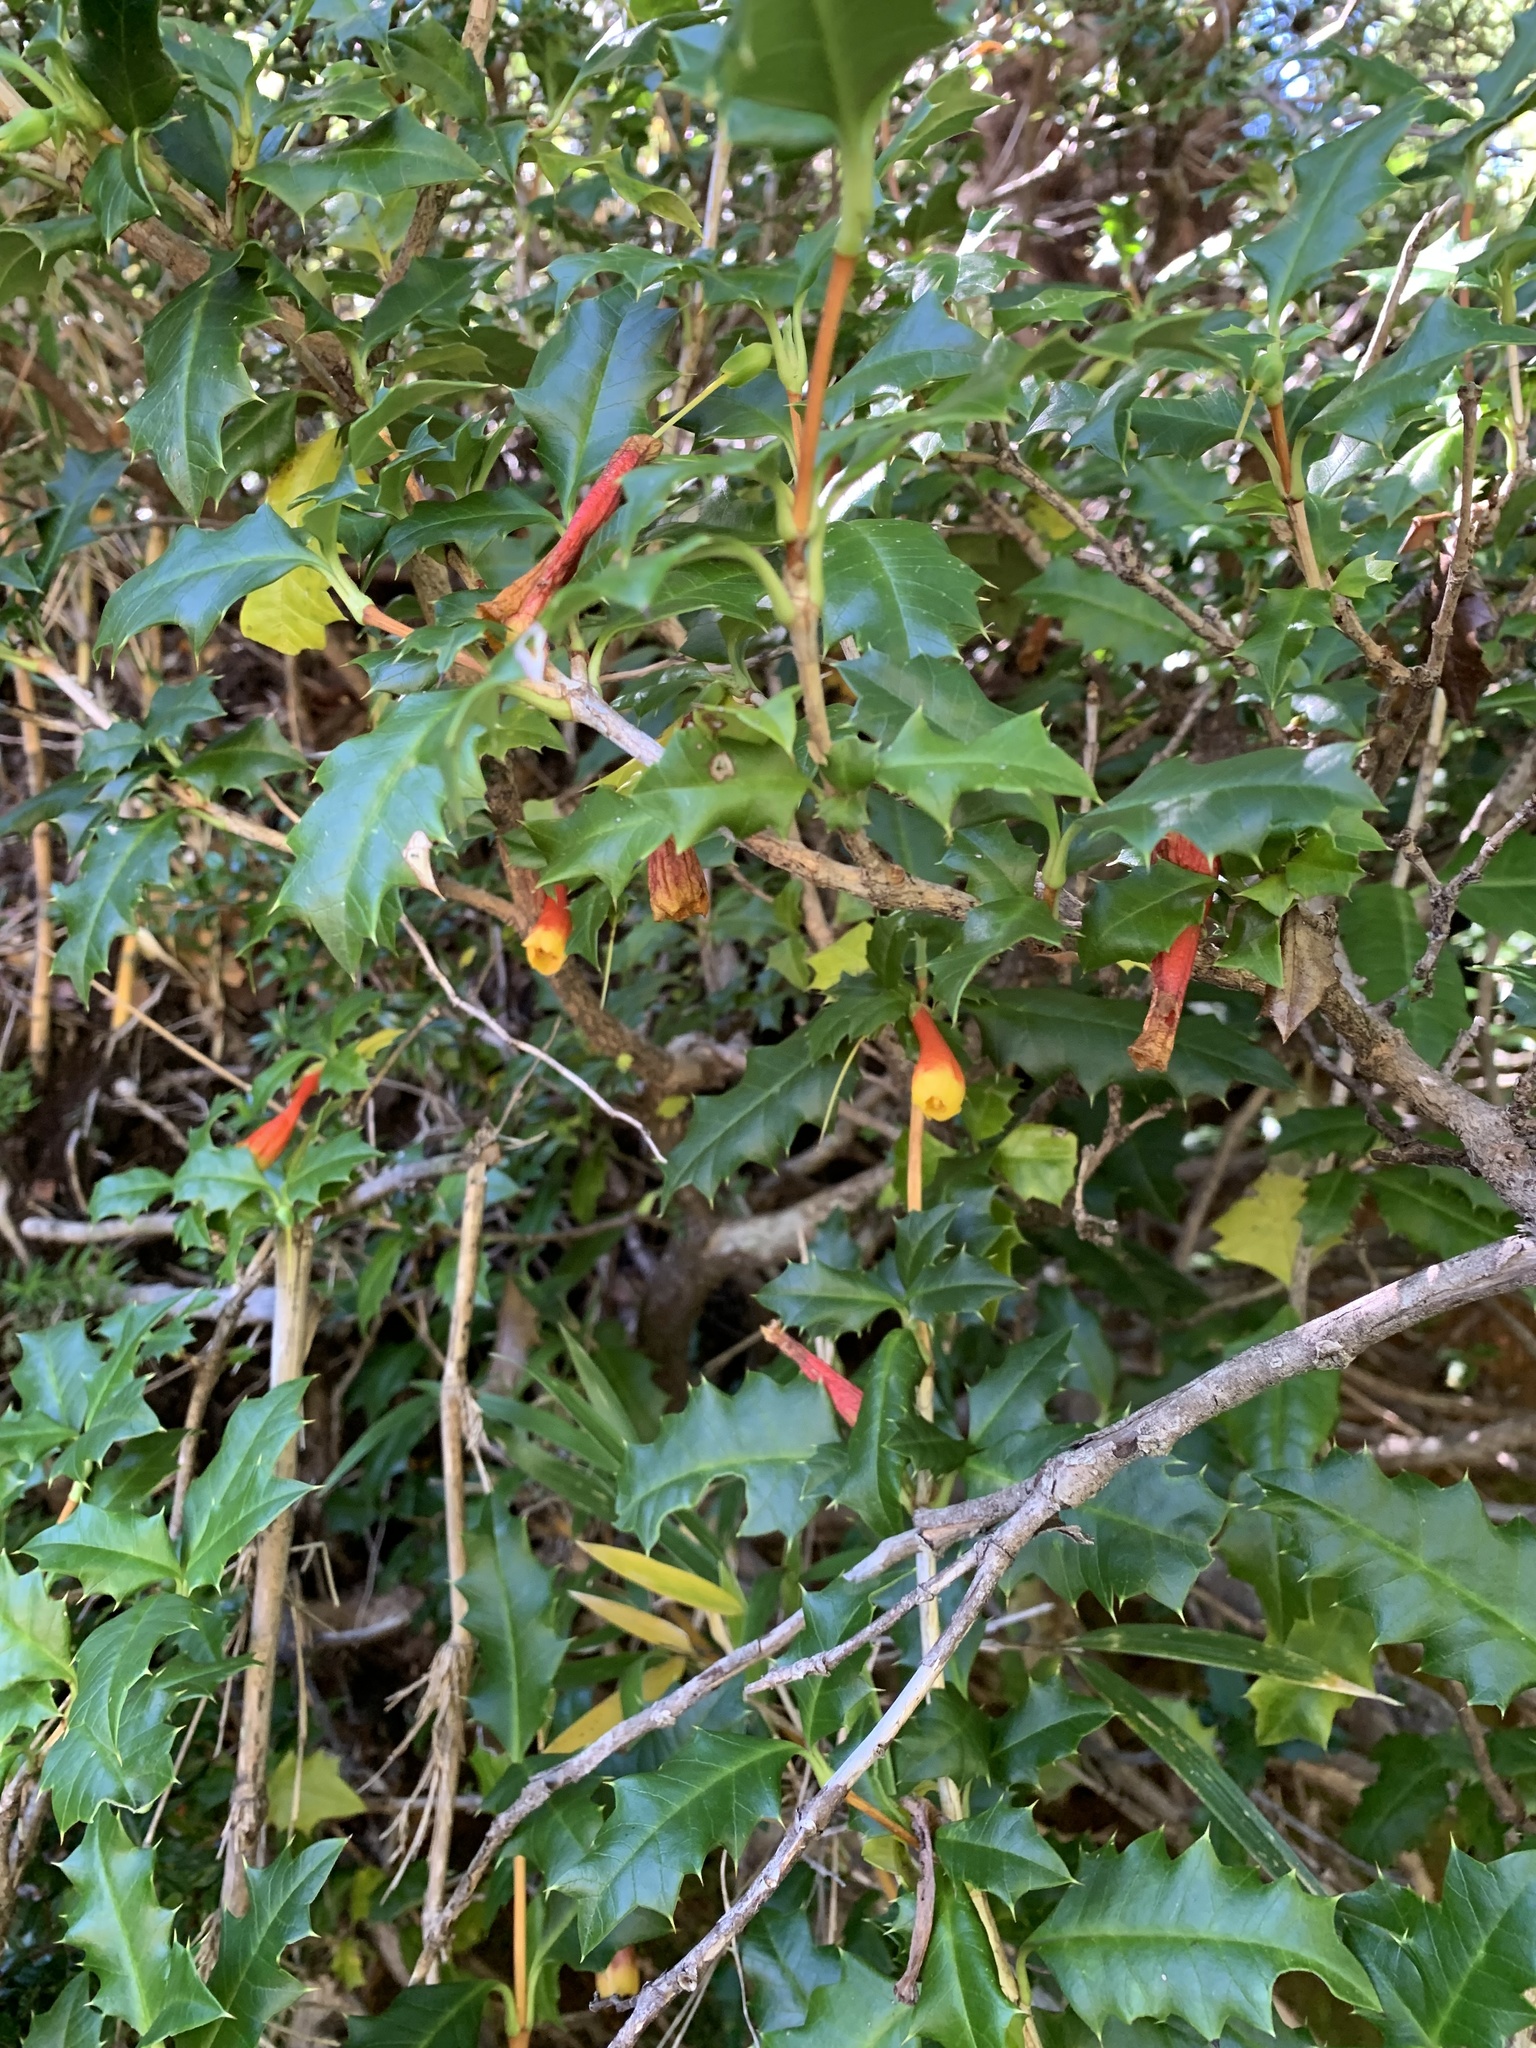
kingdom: Plantae
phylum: Tracheophyta
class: Magnoliopsida
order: Bruniales
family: Columelliaceae
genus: Desfontainia
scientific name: Desfontainia fulgens
